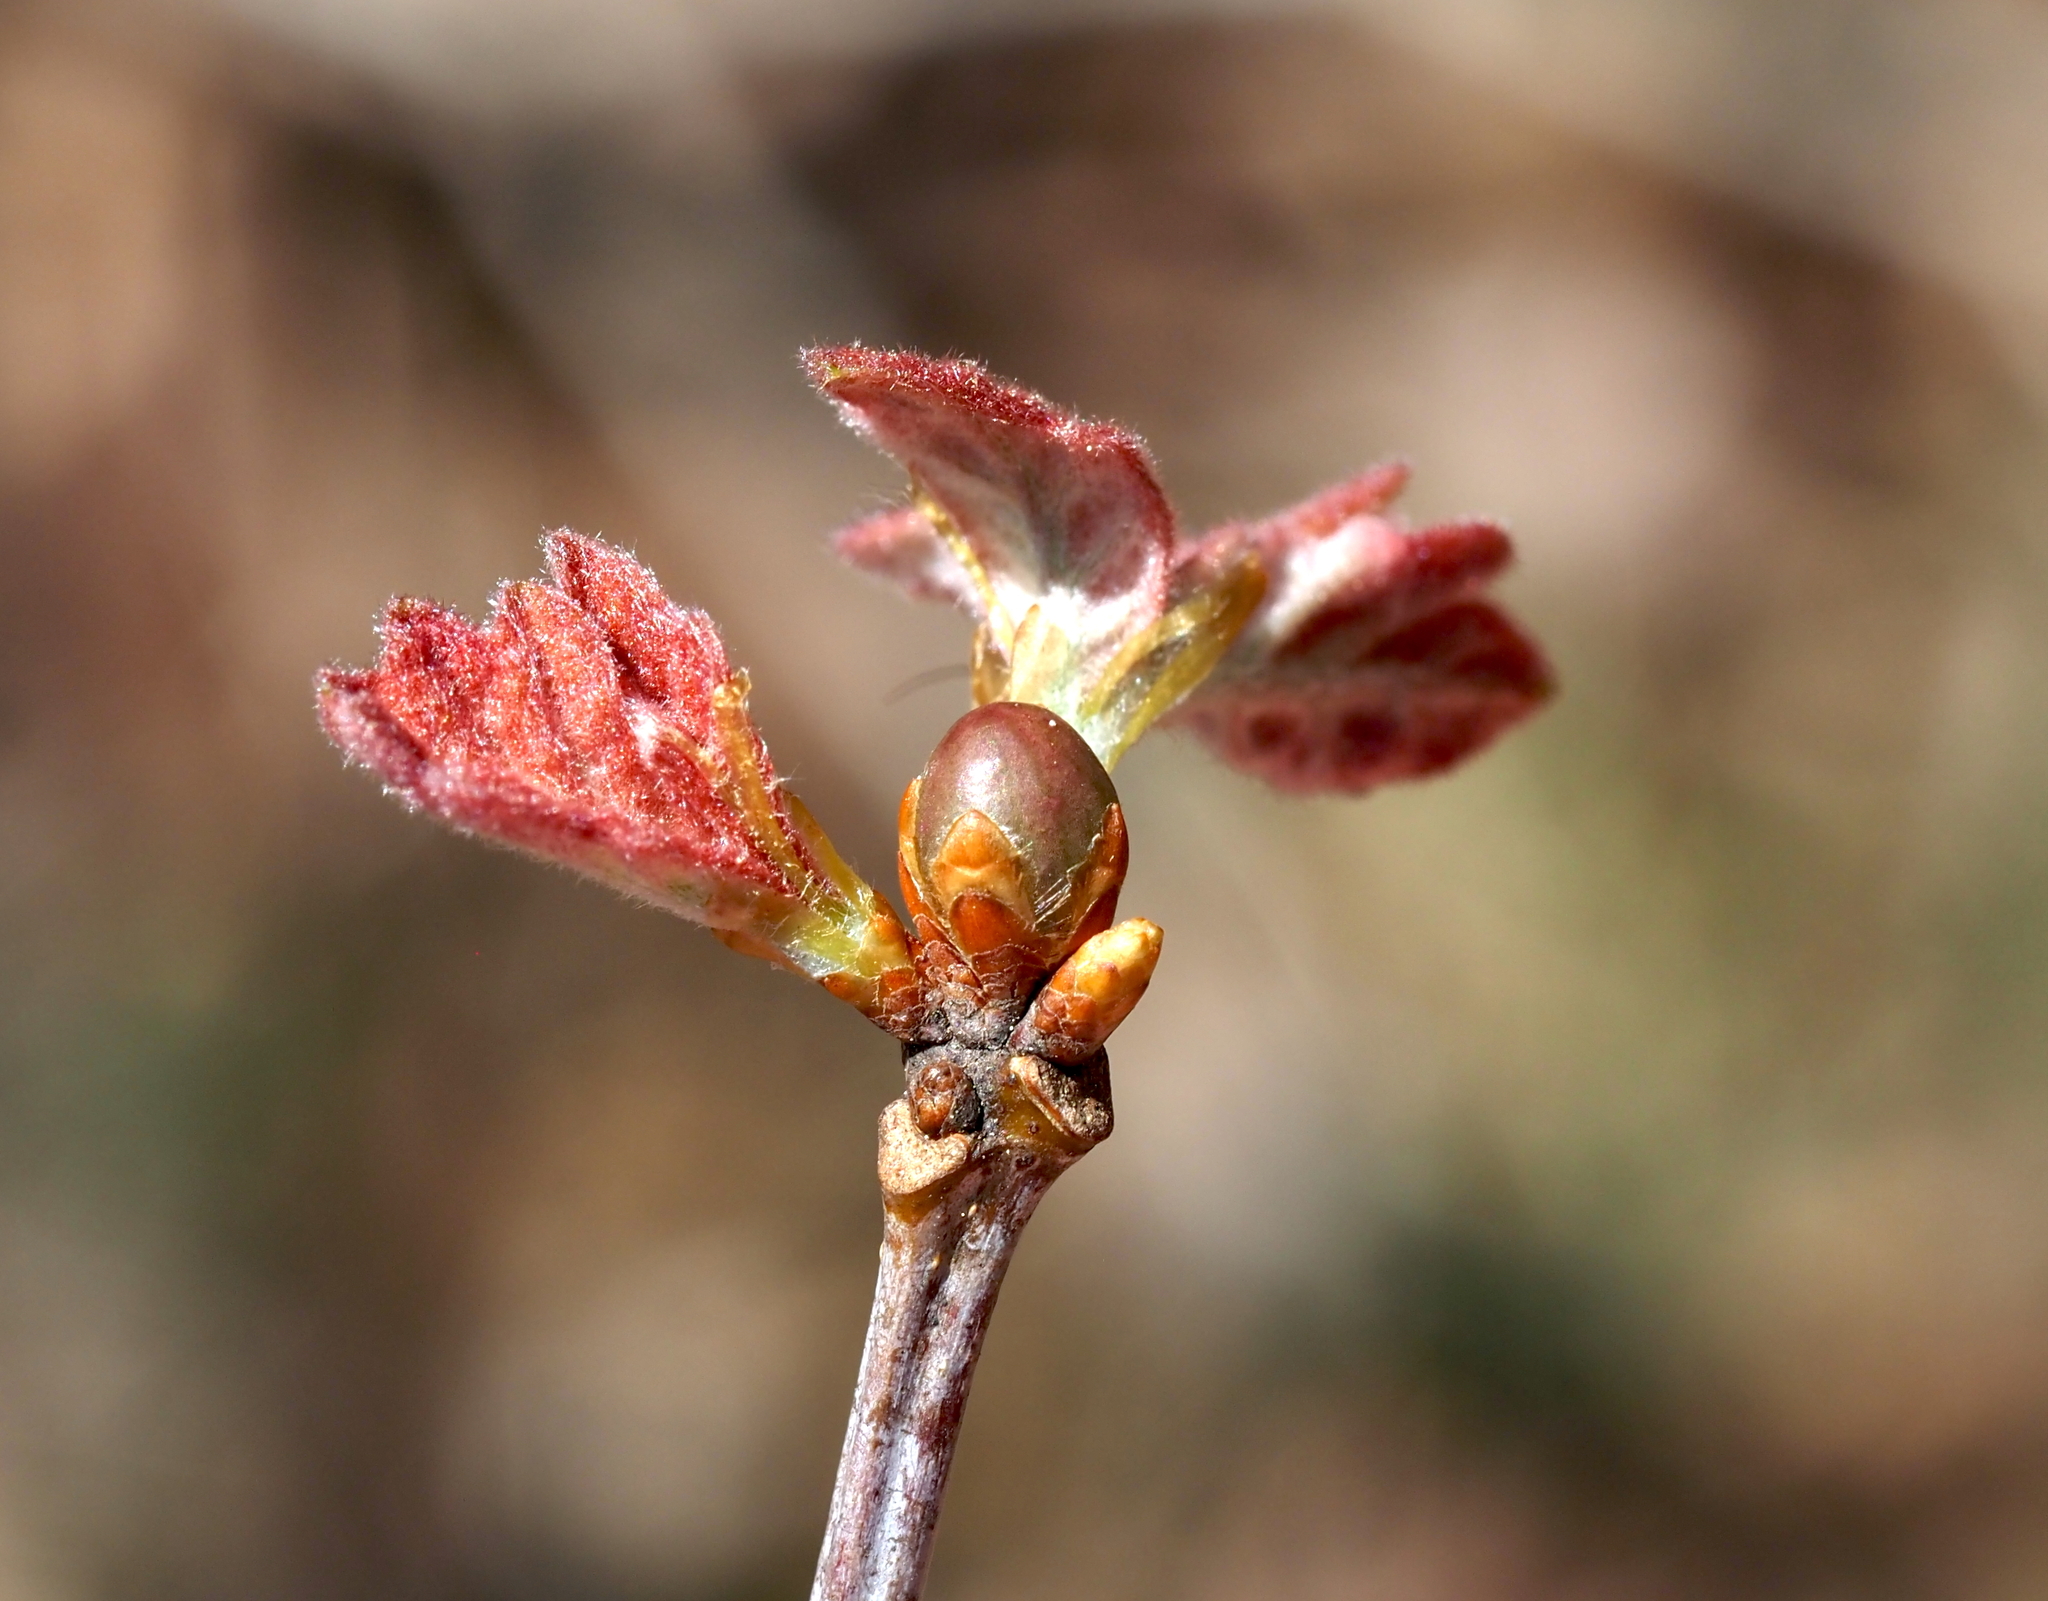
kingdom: Animalia
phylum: Arthropoda
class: Insecta
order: Hymenoptera
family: Cynipidae
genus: Neuroterus
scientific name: Neuroterus
